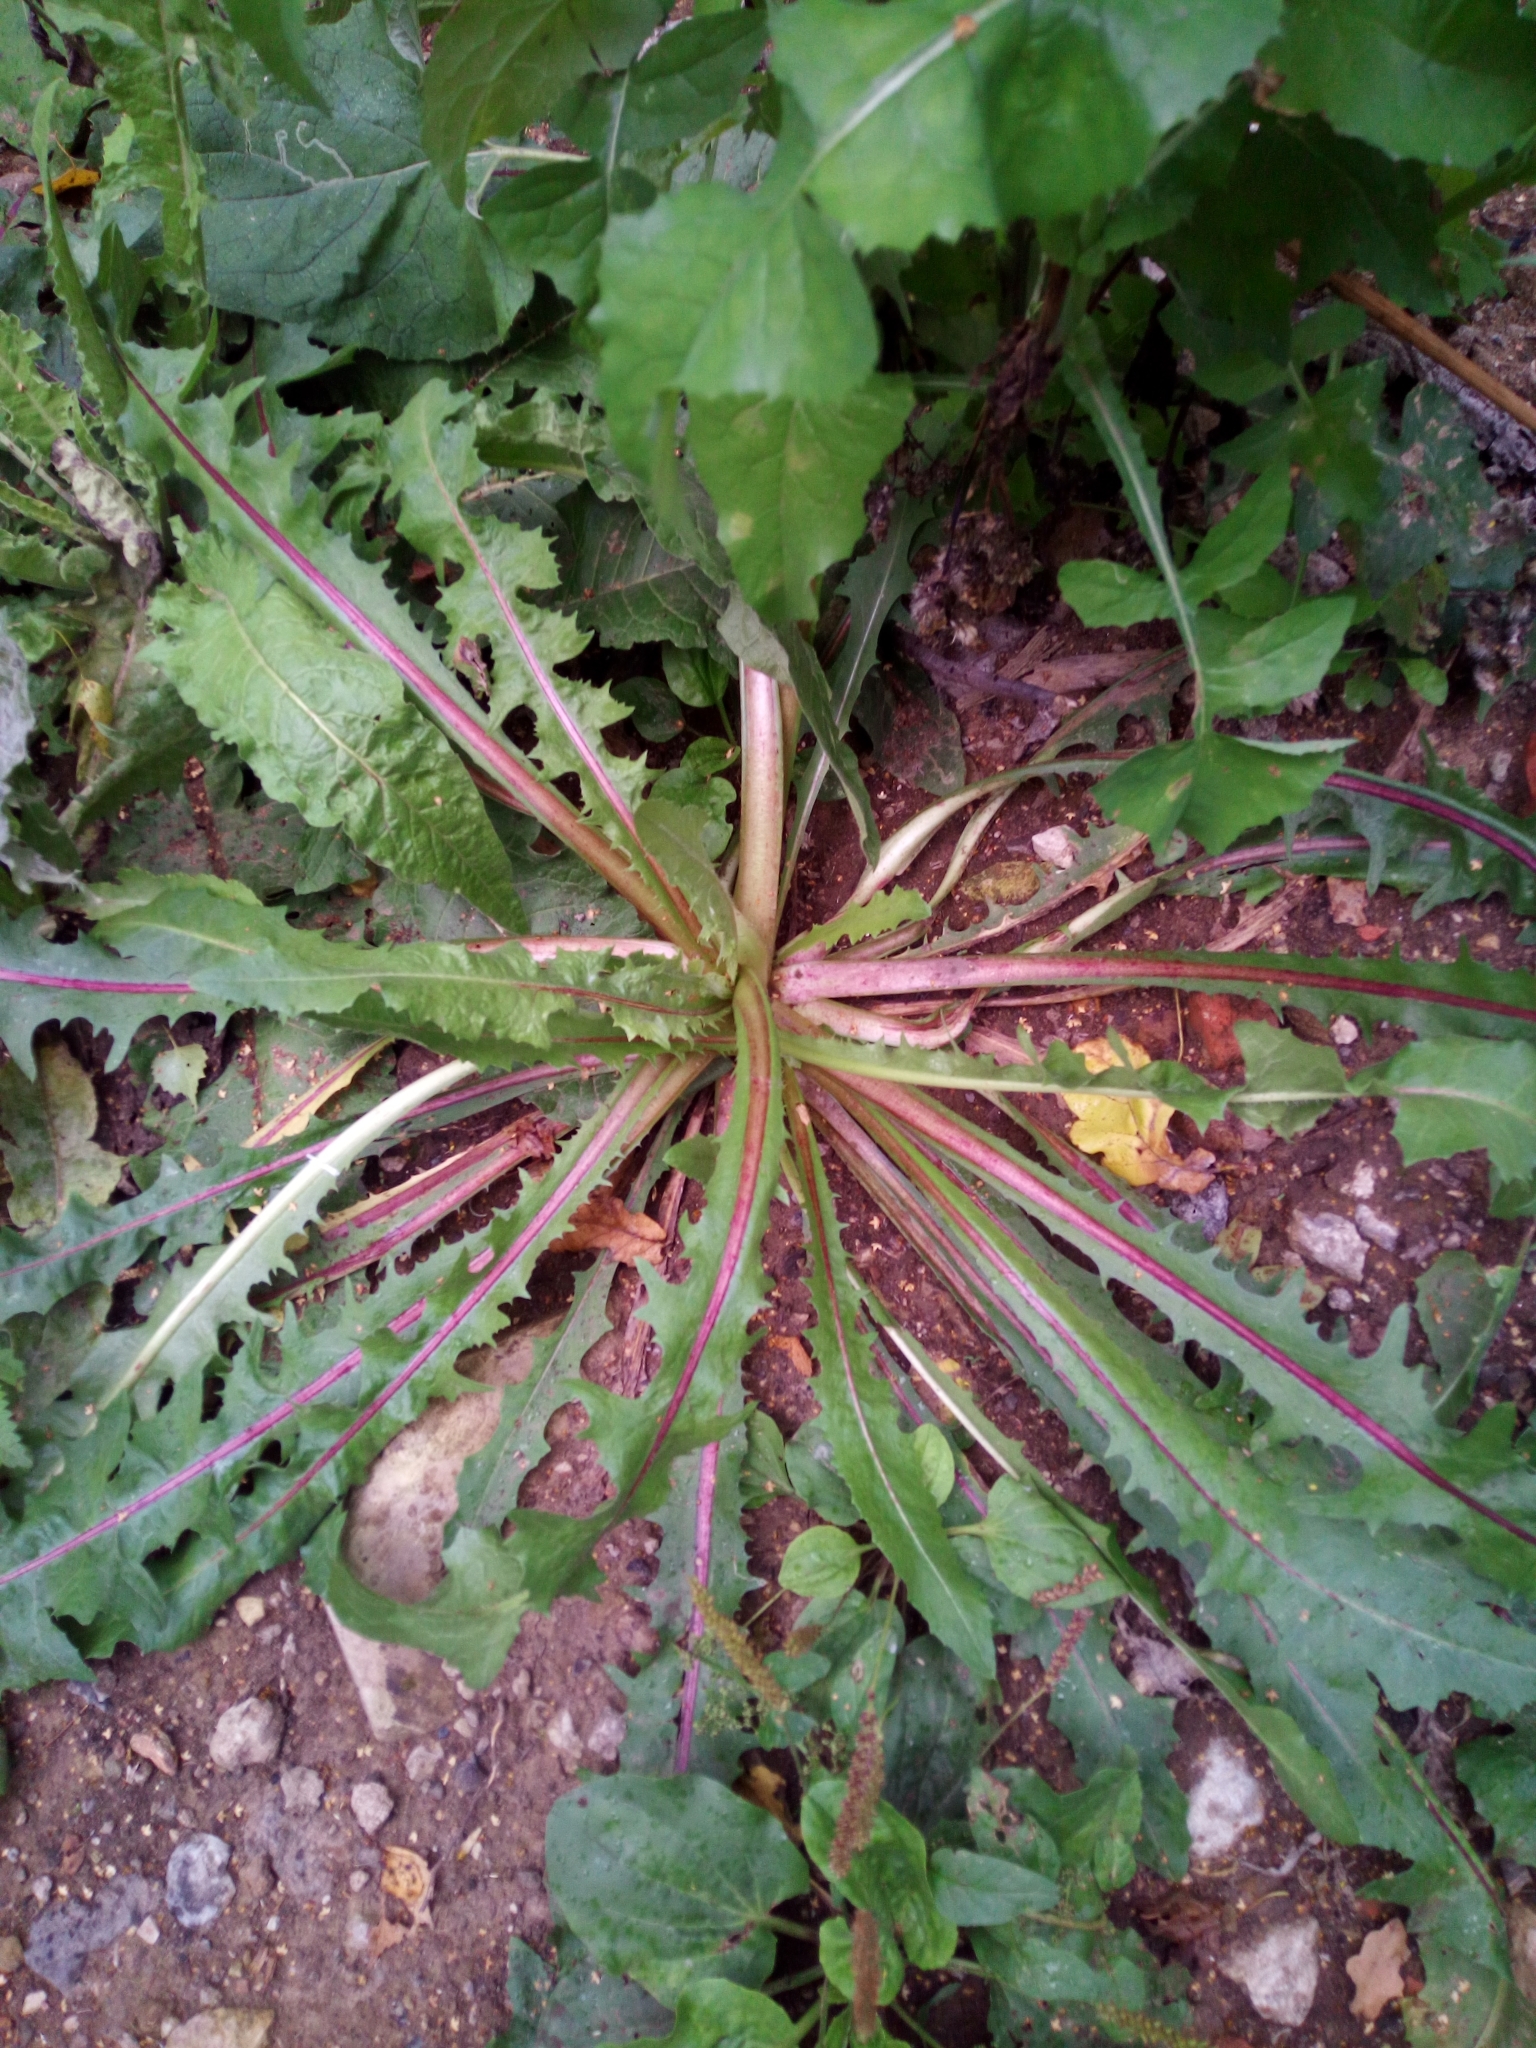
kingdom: Plantae
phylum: Tracheophyta
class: Magnoliopsida
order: Asterales
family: Asteraceae
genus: Taraxacum
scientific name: Taraxacum officinale
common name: Common dandelion
